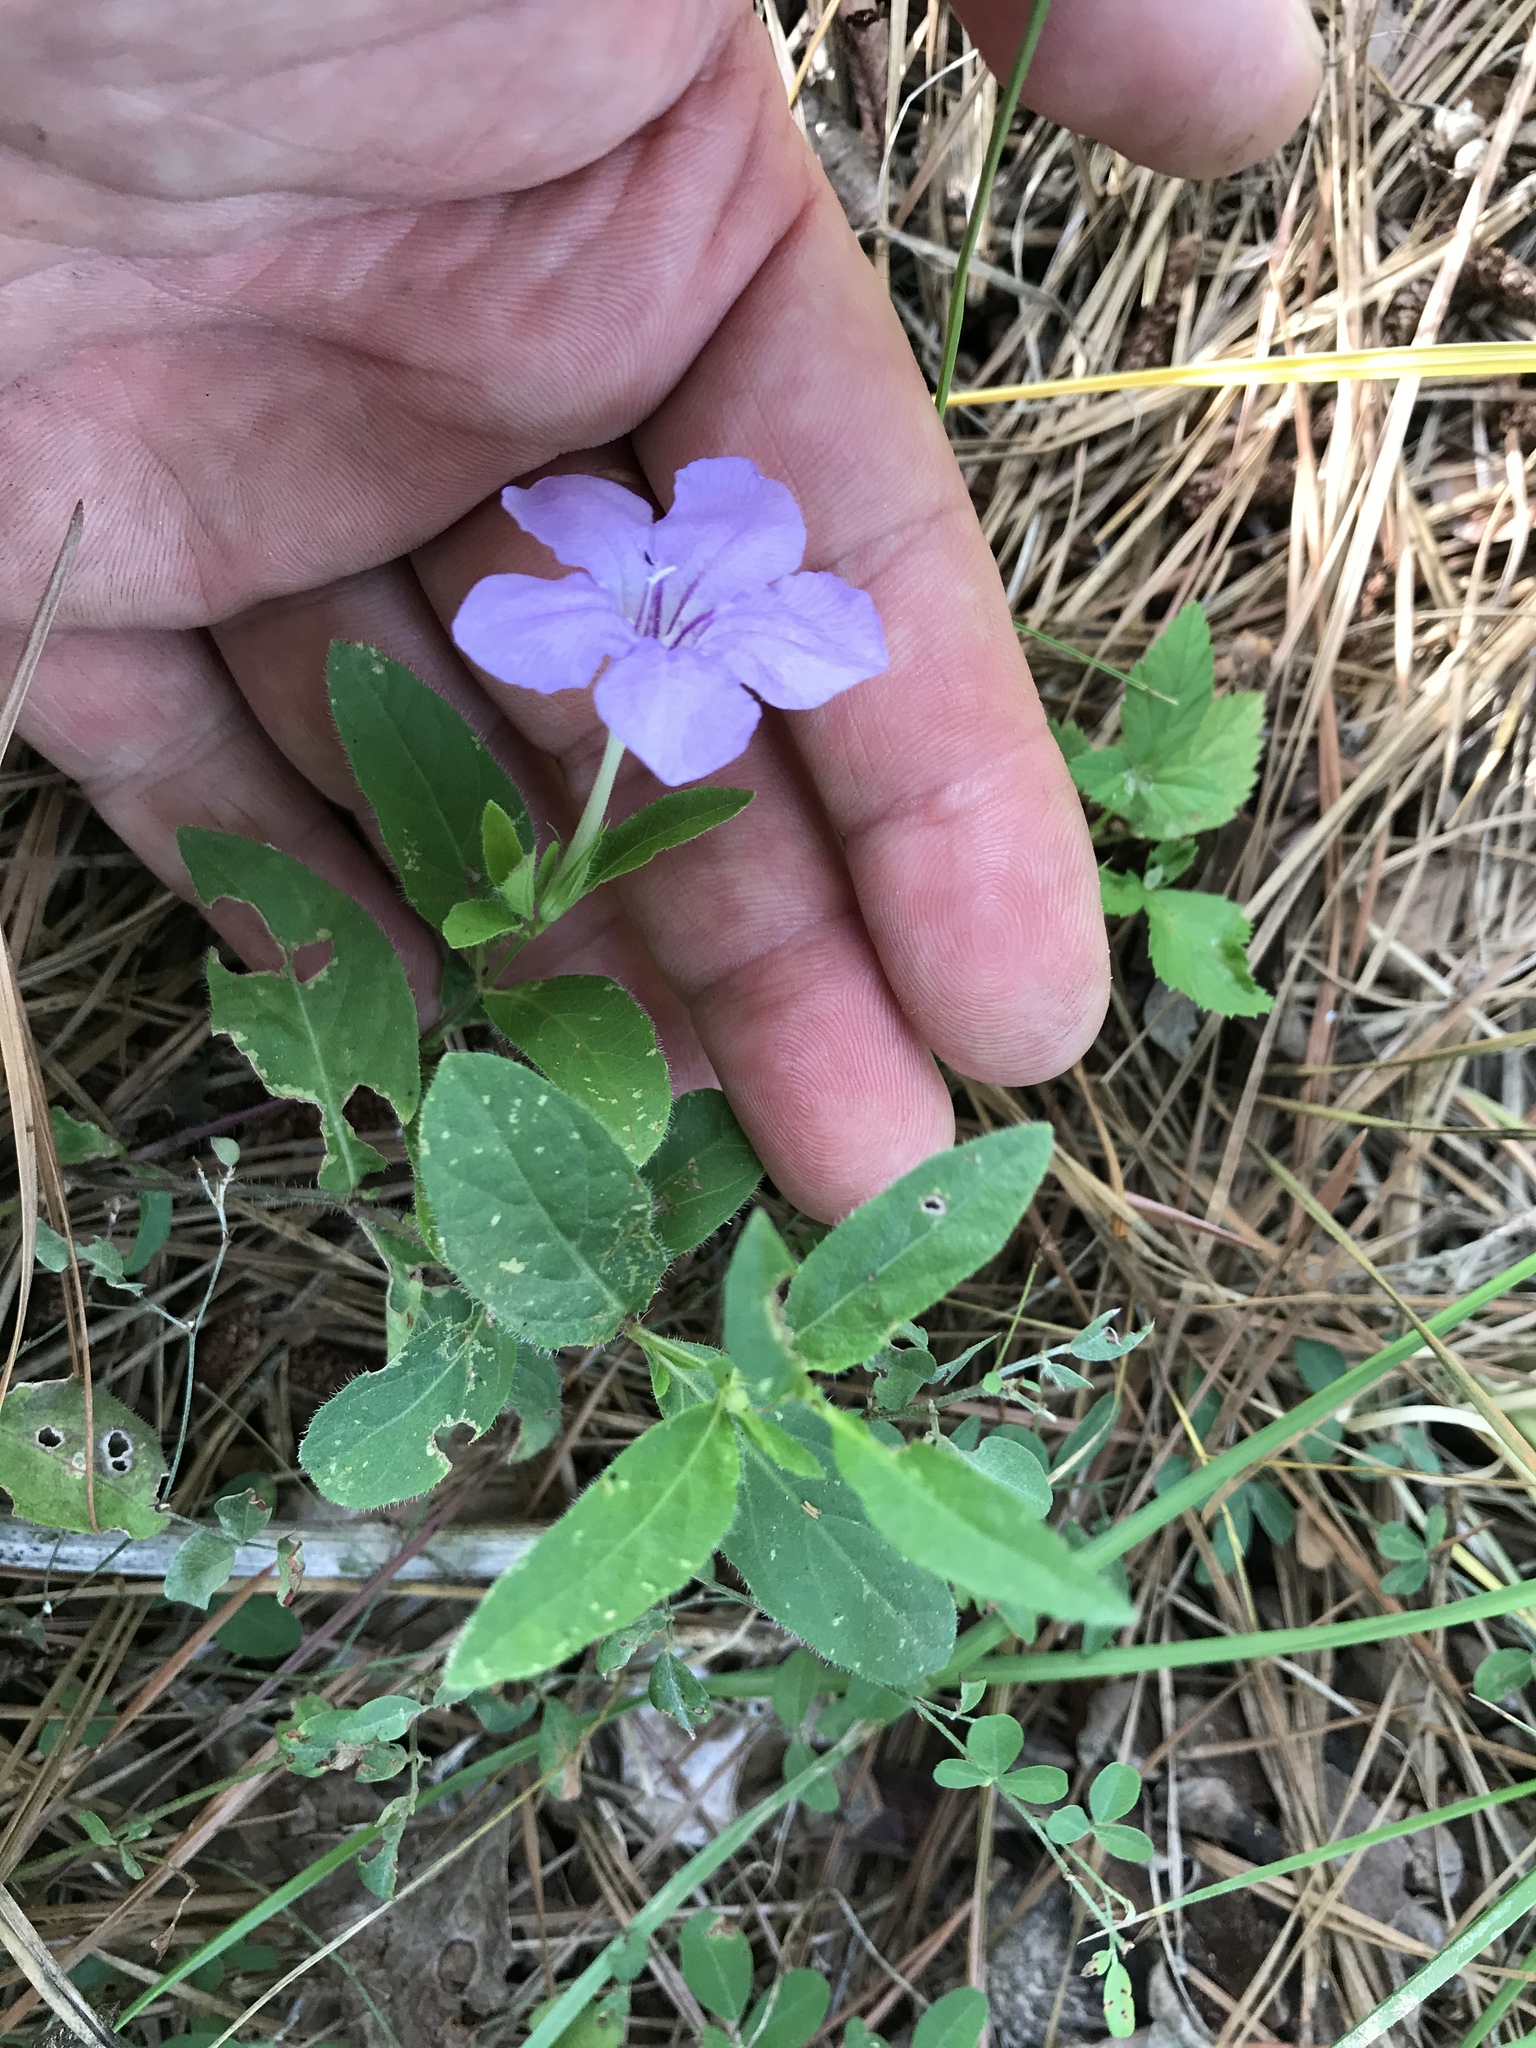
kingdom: Plantae
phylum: Tracheophyta
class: Magnoliopsida
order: Lamiales
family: Acanthaceae
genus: Ruellia
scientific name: Ruellia humilis
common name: Fringe-leaf ruellia
